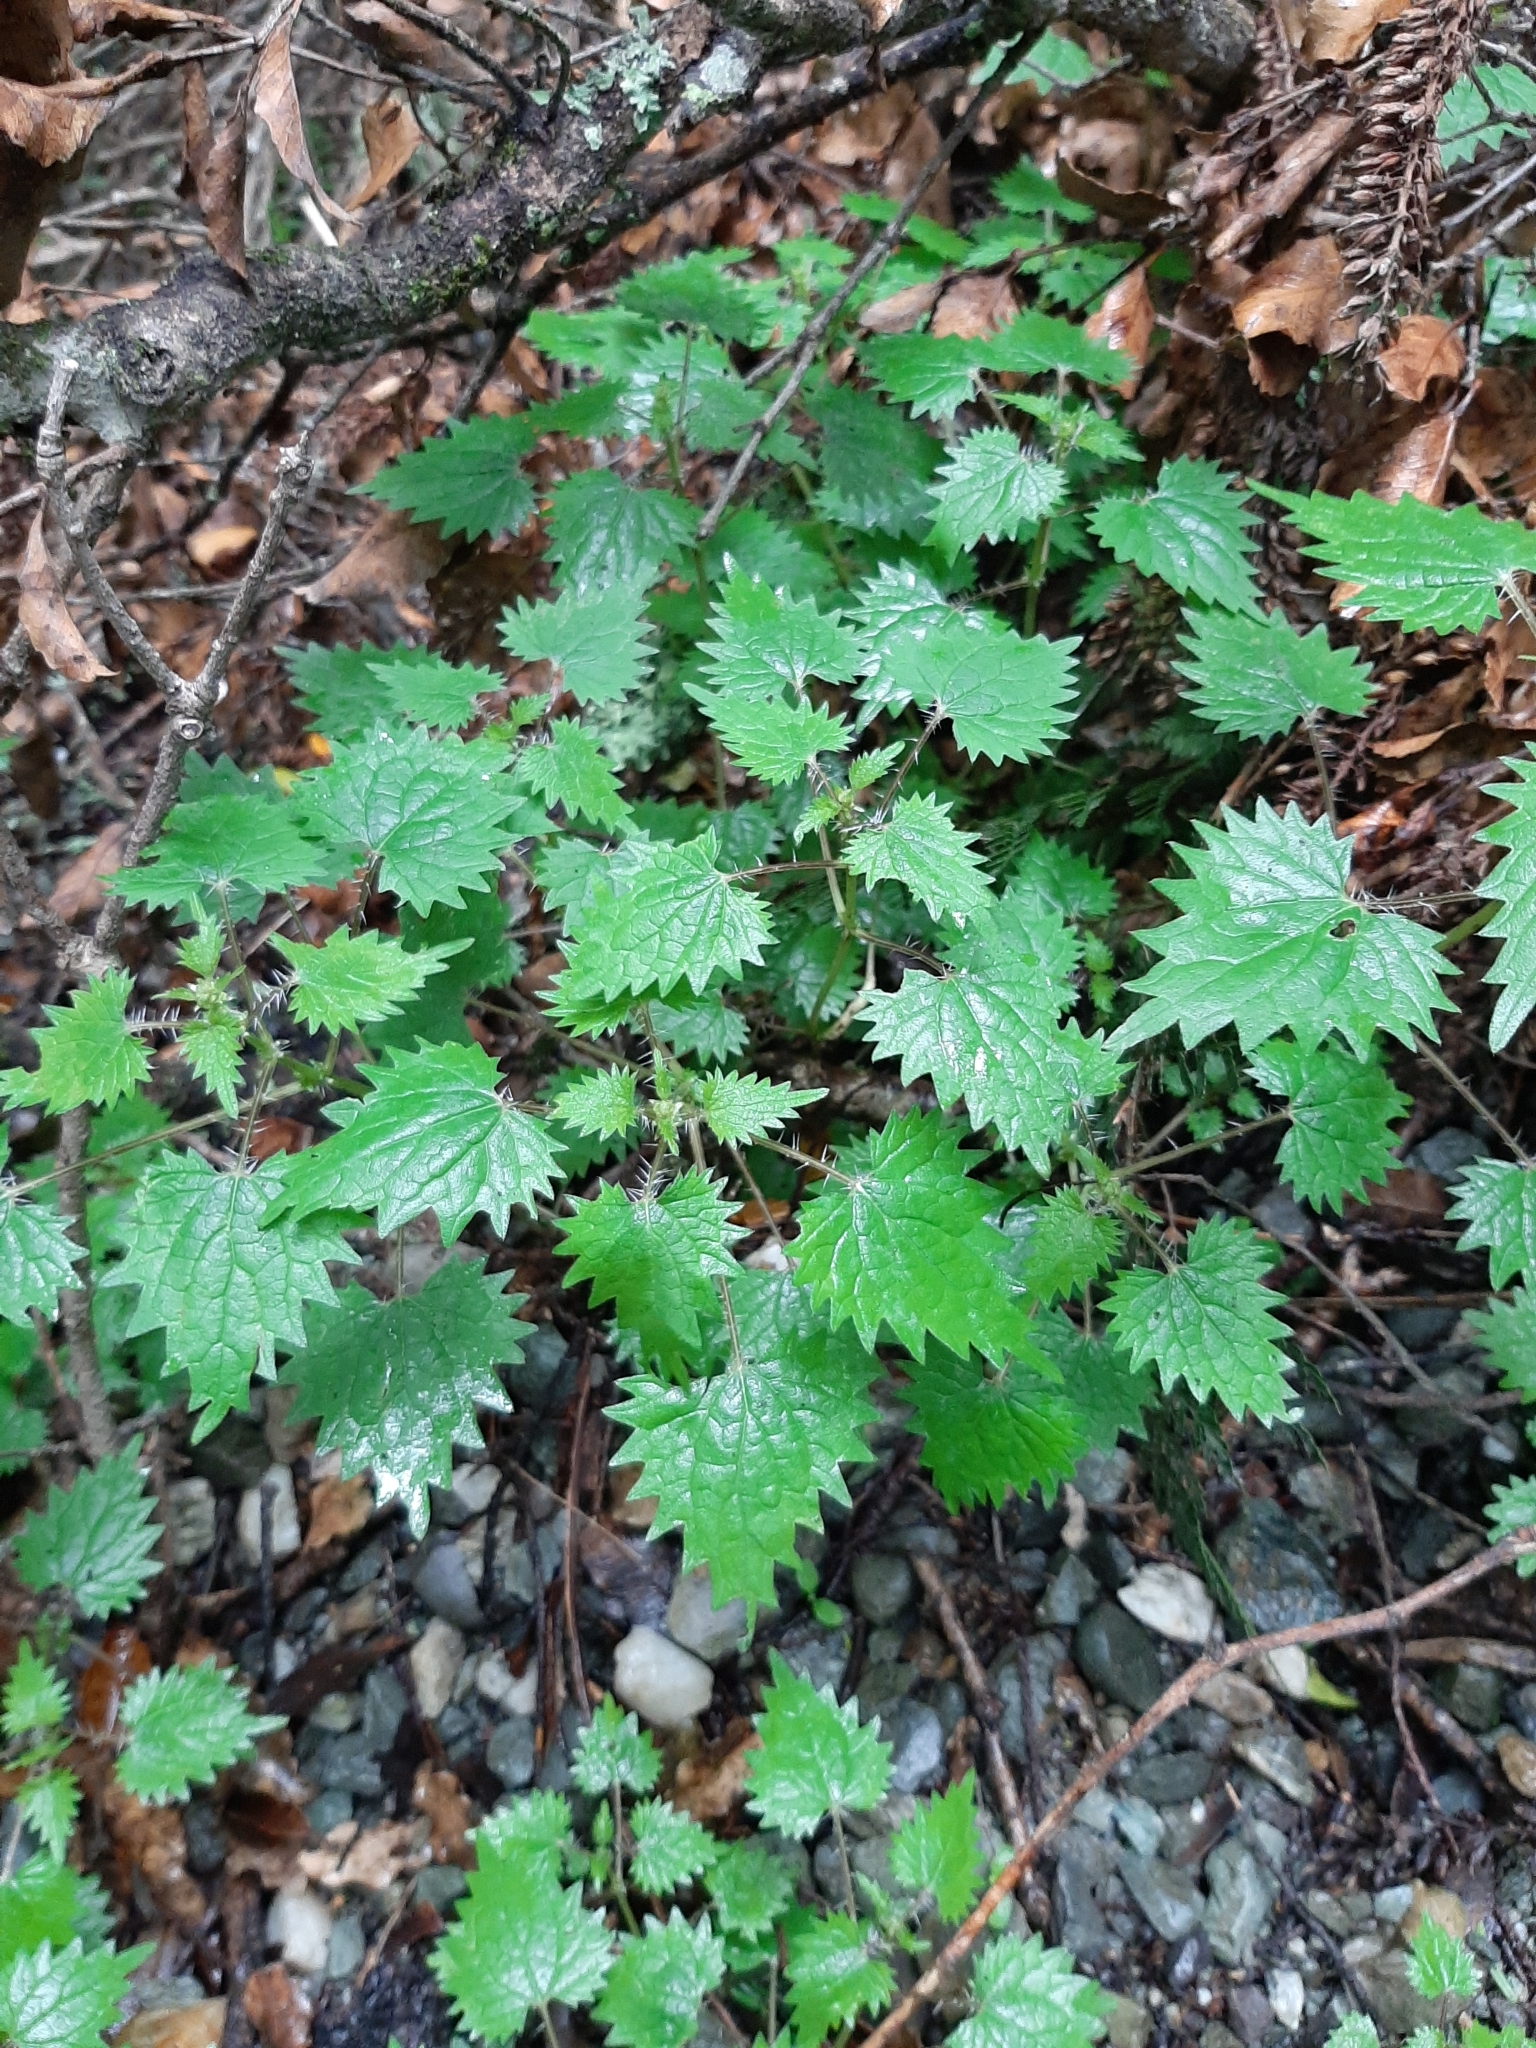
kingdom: Plantae
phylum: Tracheophyta
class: Magnoliopsida
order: Rosales
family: Urticaceae
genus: Urtica
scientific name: Urtica sykesii
